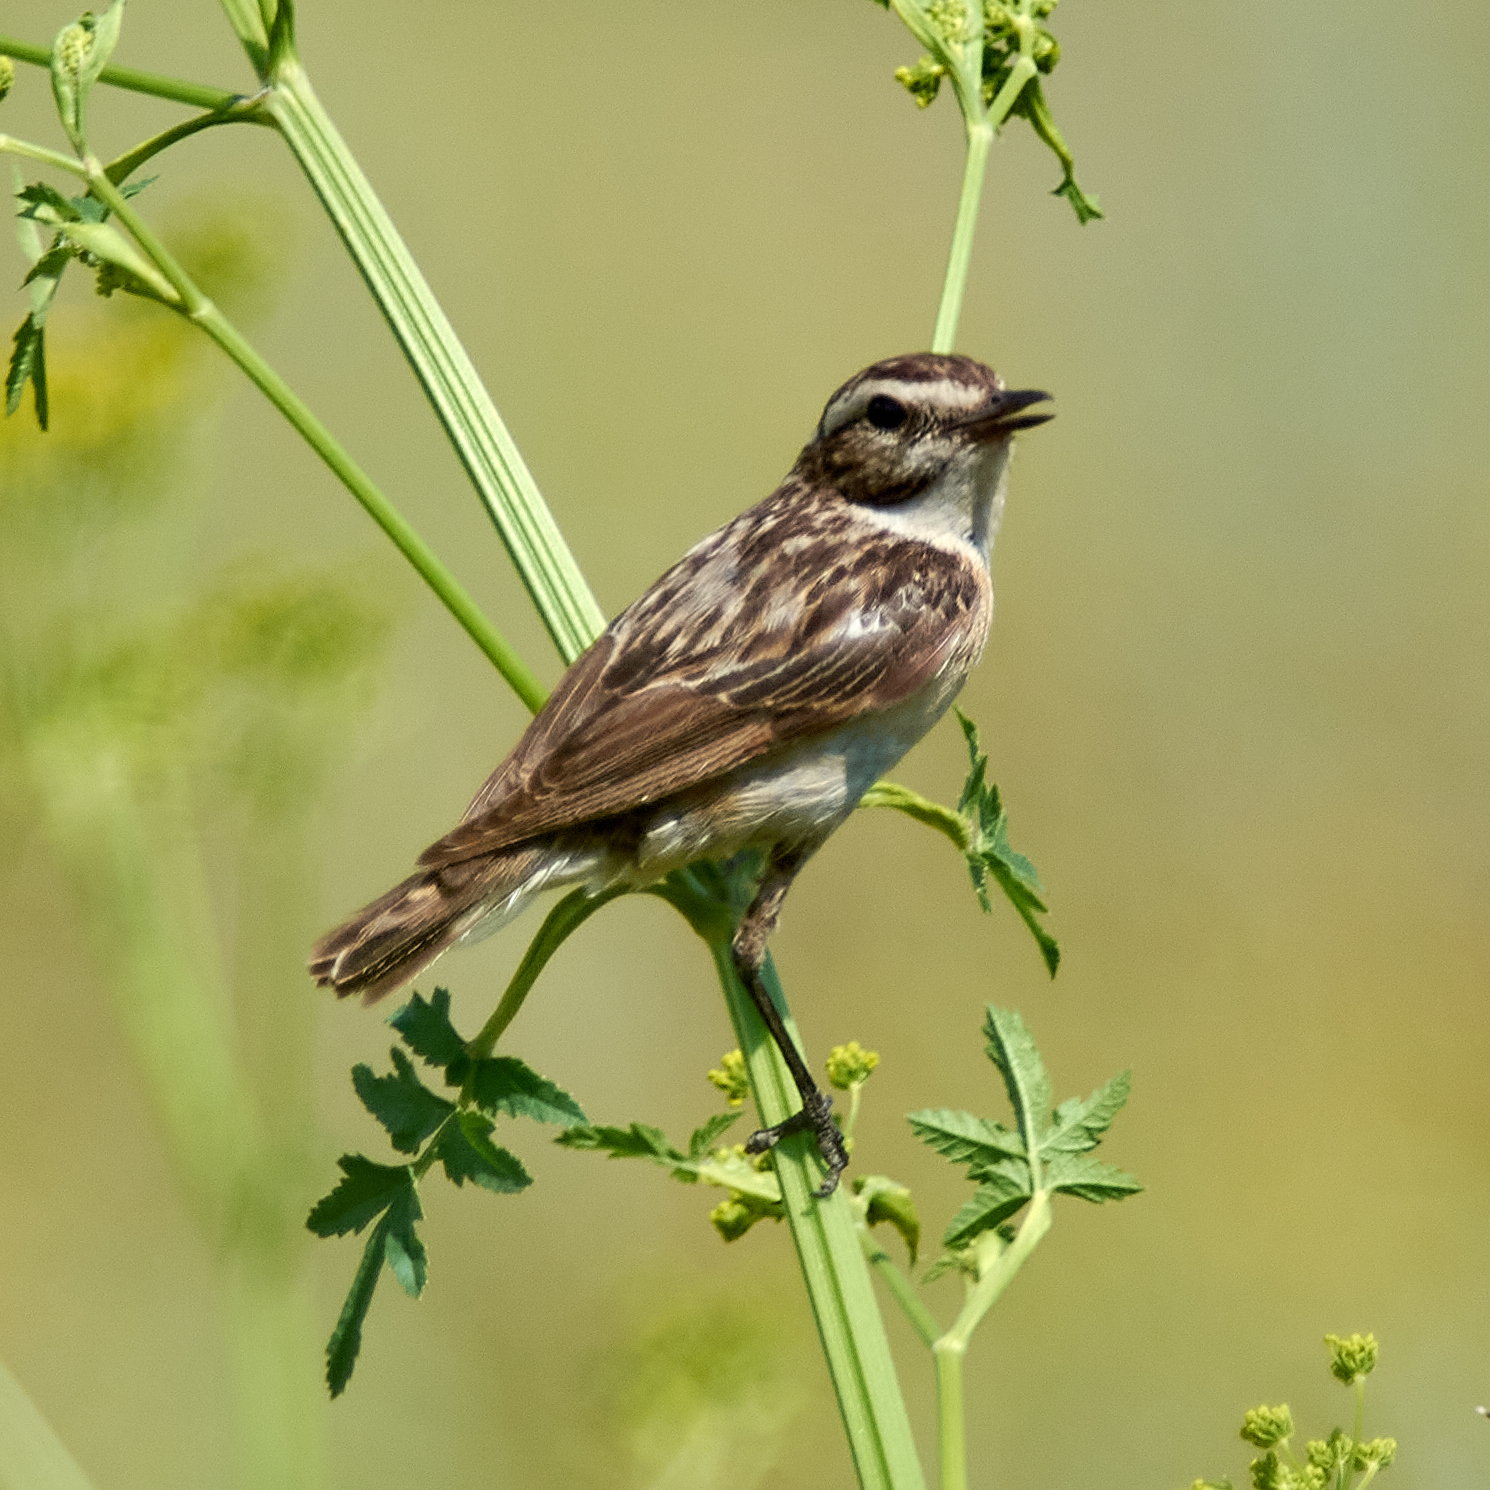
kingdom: Animalia
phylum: Chordata
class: Aves
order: Passeriformes
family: Muscicapidae
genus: Saxicola
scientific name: Saxicola rubetra
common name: Whinchat
